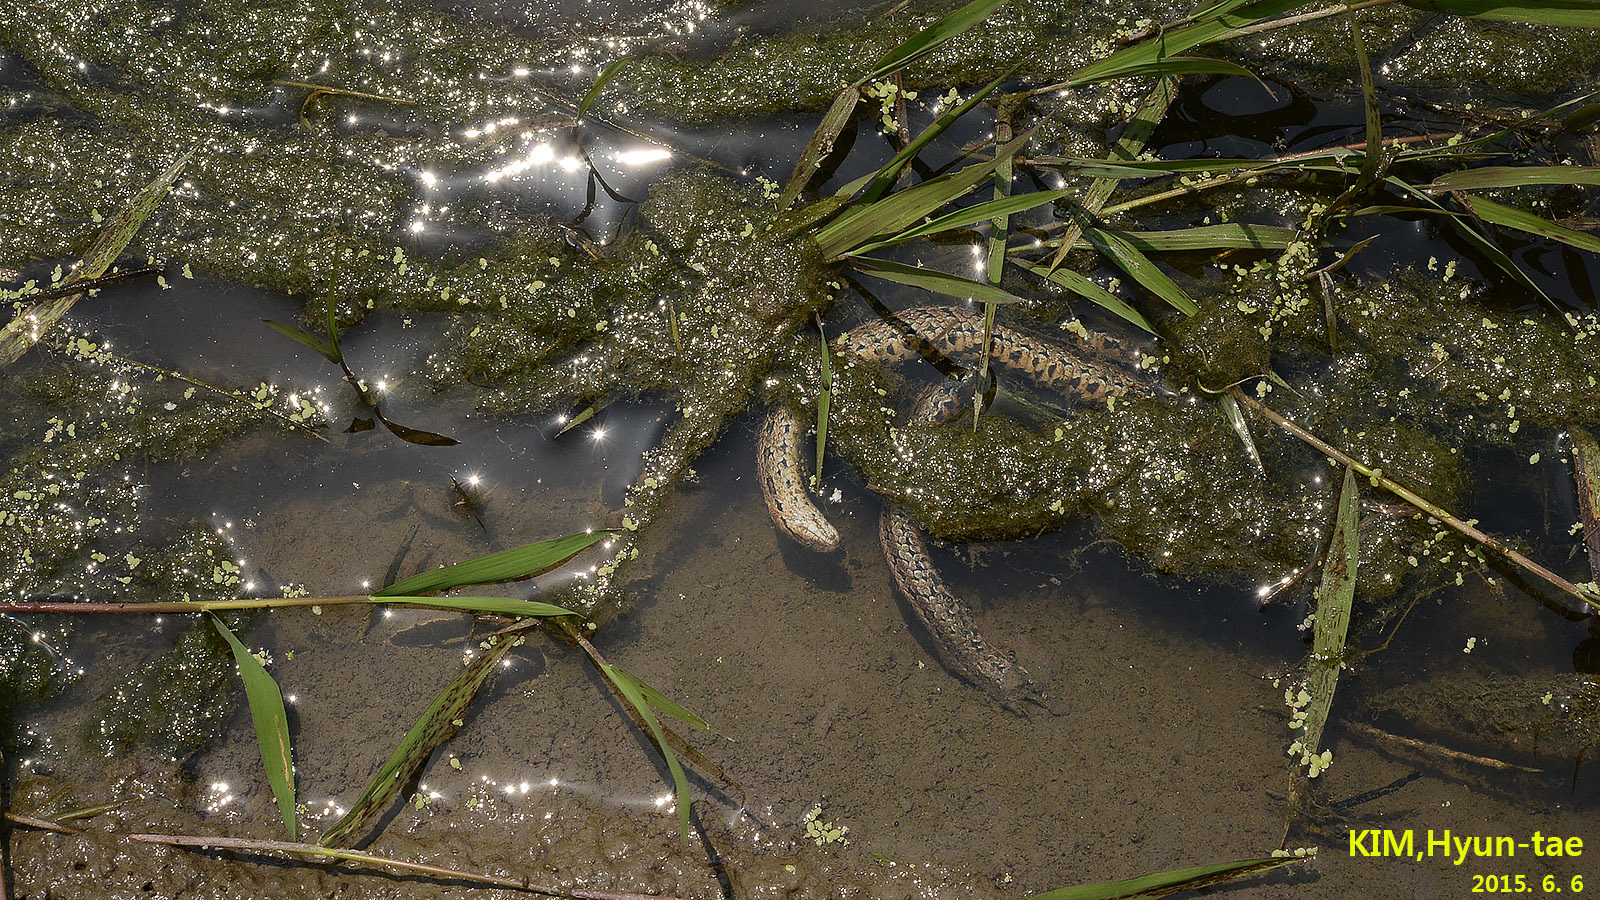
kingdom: Animalia
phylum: Chordata
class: Squamata
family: Colubridae
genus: Oocatochus
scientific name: Oocatochus rufodorsatus
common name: Frog-eating rat snake
